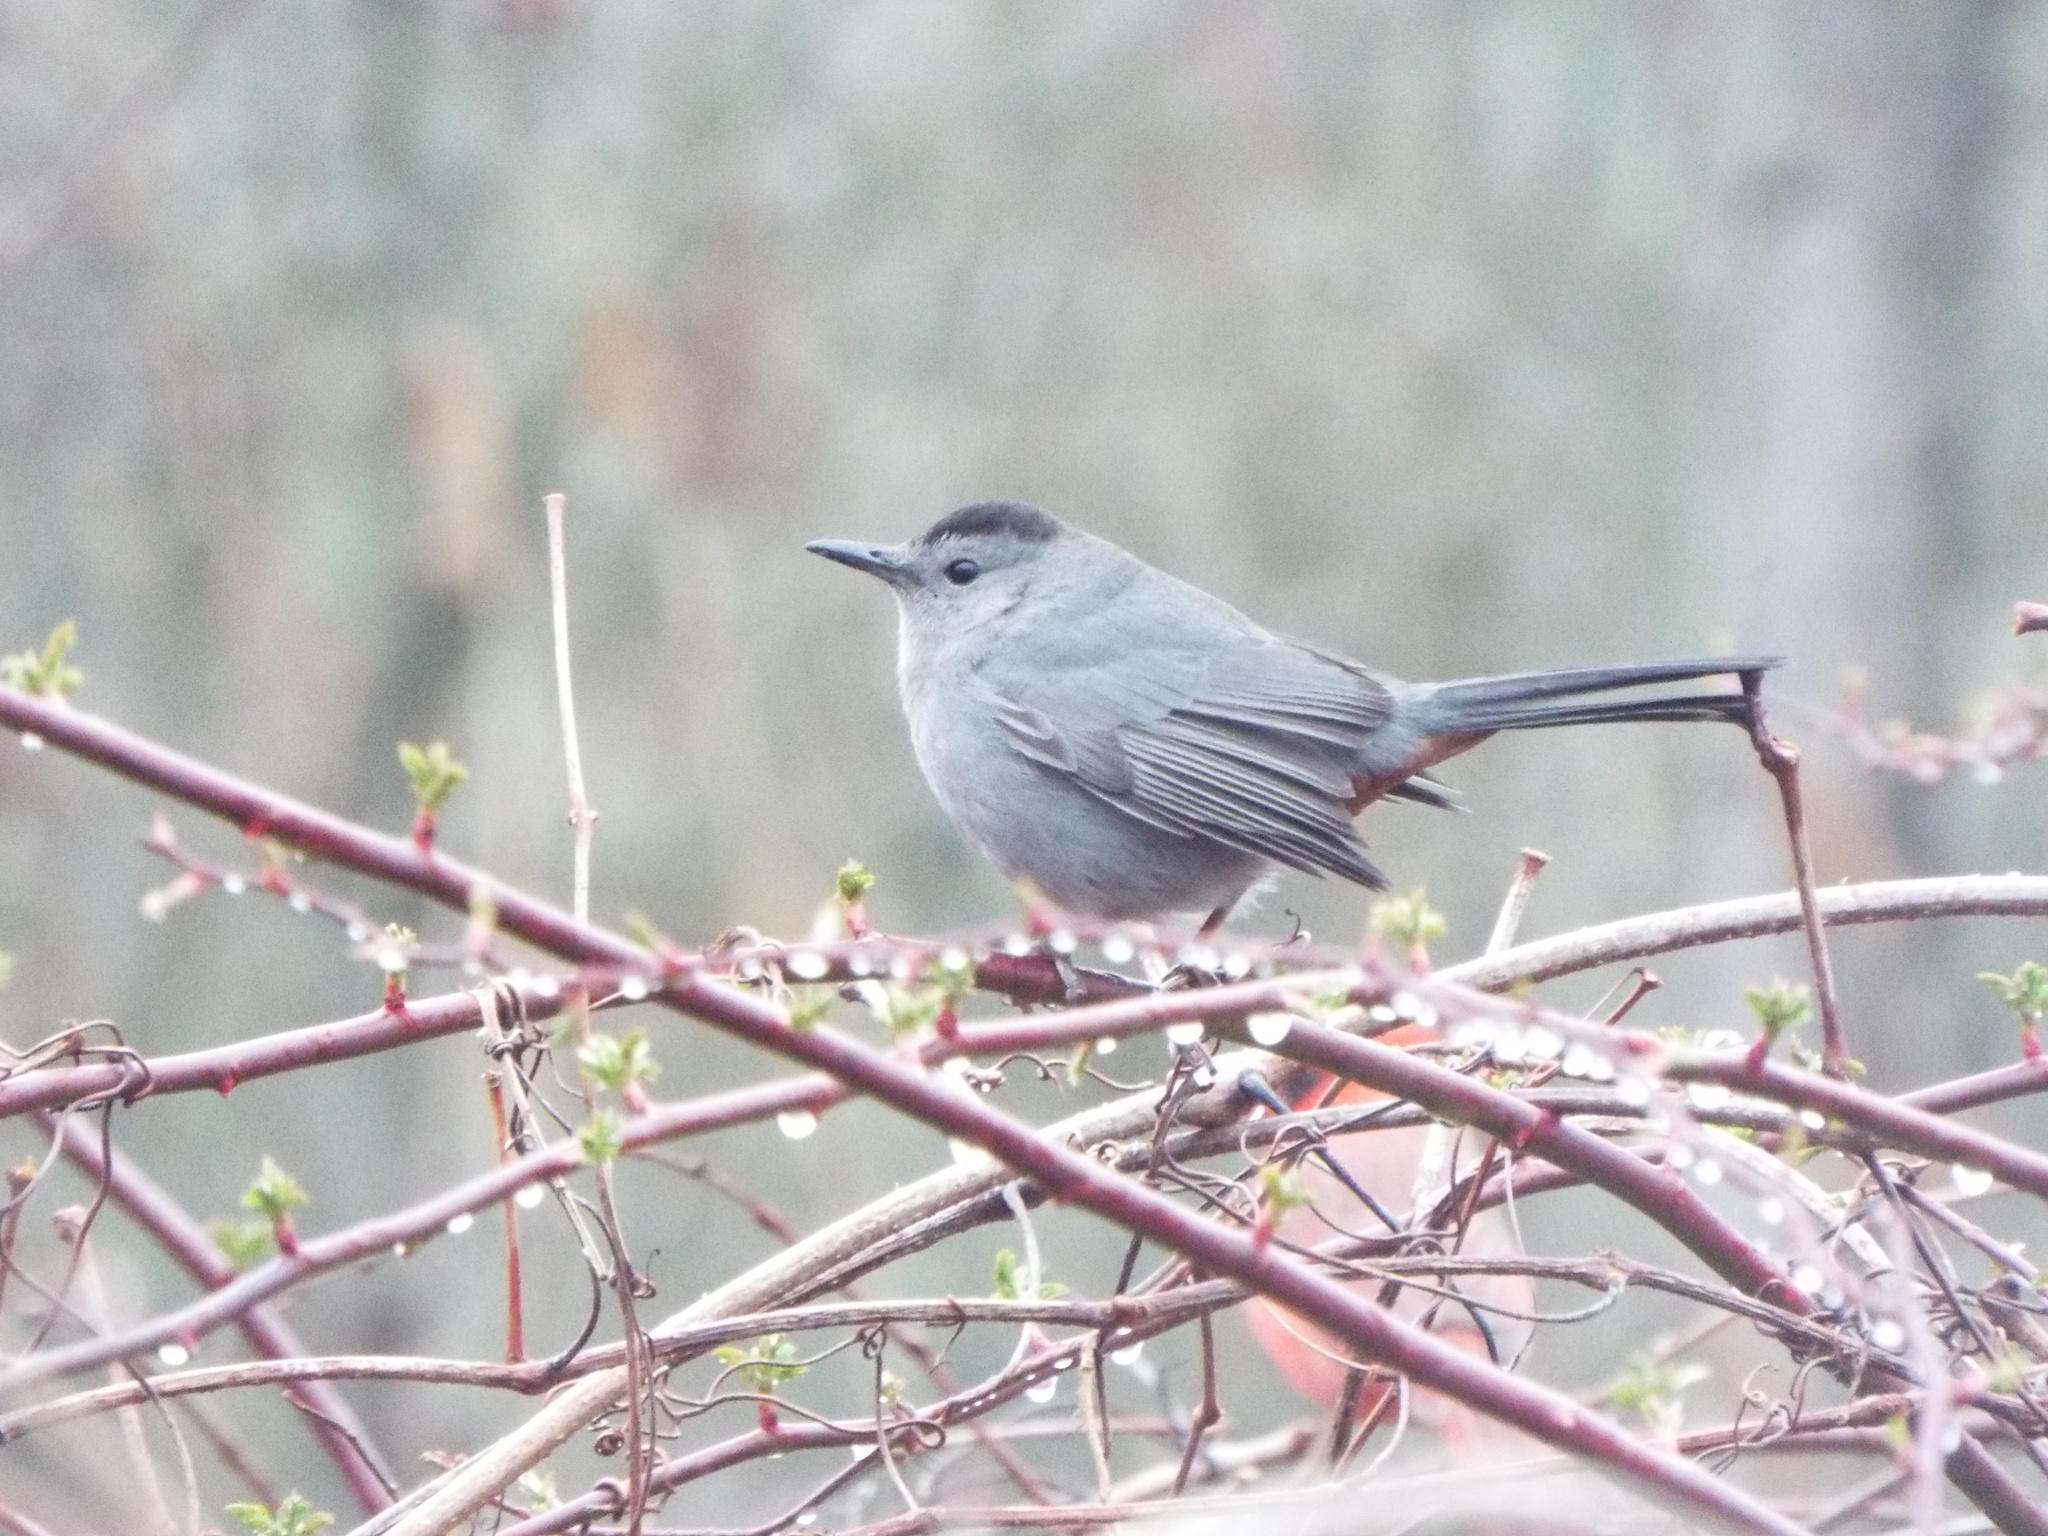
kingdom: Animalia
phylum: Chordata
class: Aves
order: Passeriformes
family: Mimidae
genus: Dumetella
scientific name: Dumetella carolinensis
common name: Gray catbird
